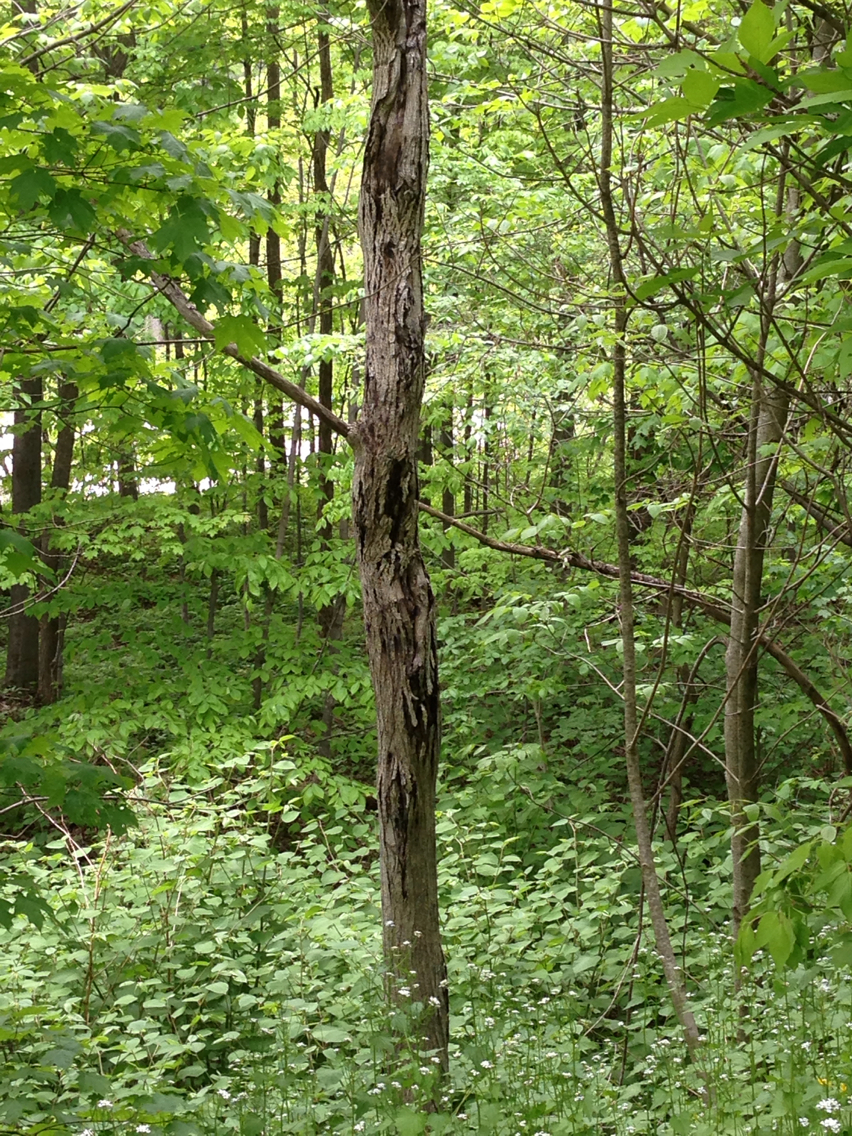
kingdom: Plantae
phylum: Tracheophyta
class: Magnoliopsida
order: Fagales
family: Juglandaceae
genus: Juglans
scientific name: Juglans cinerea
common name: Butternut
